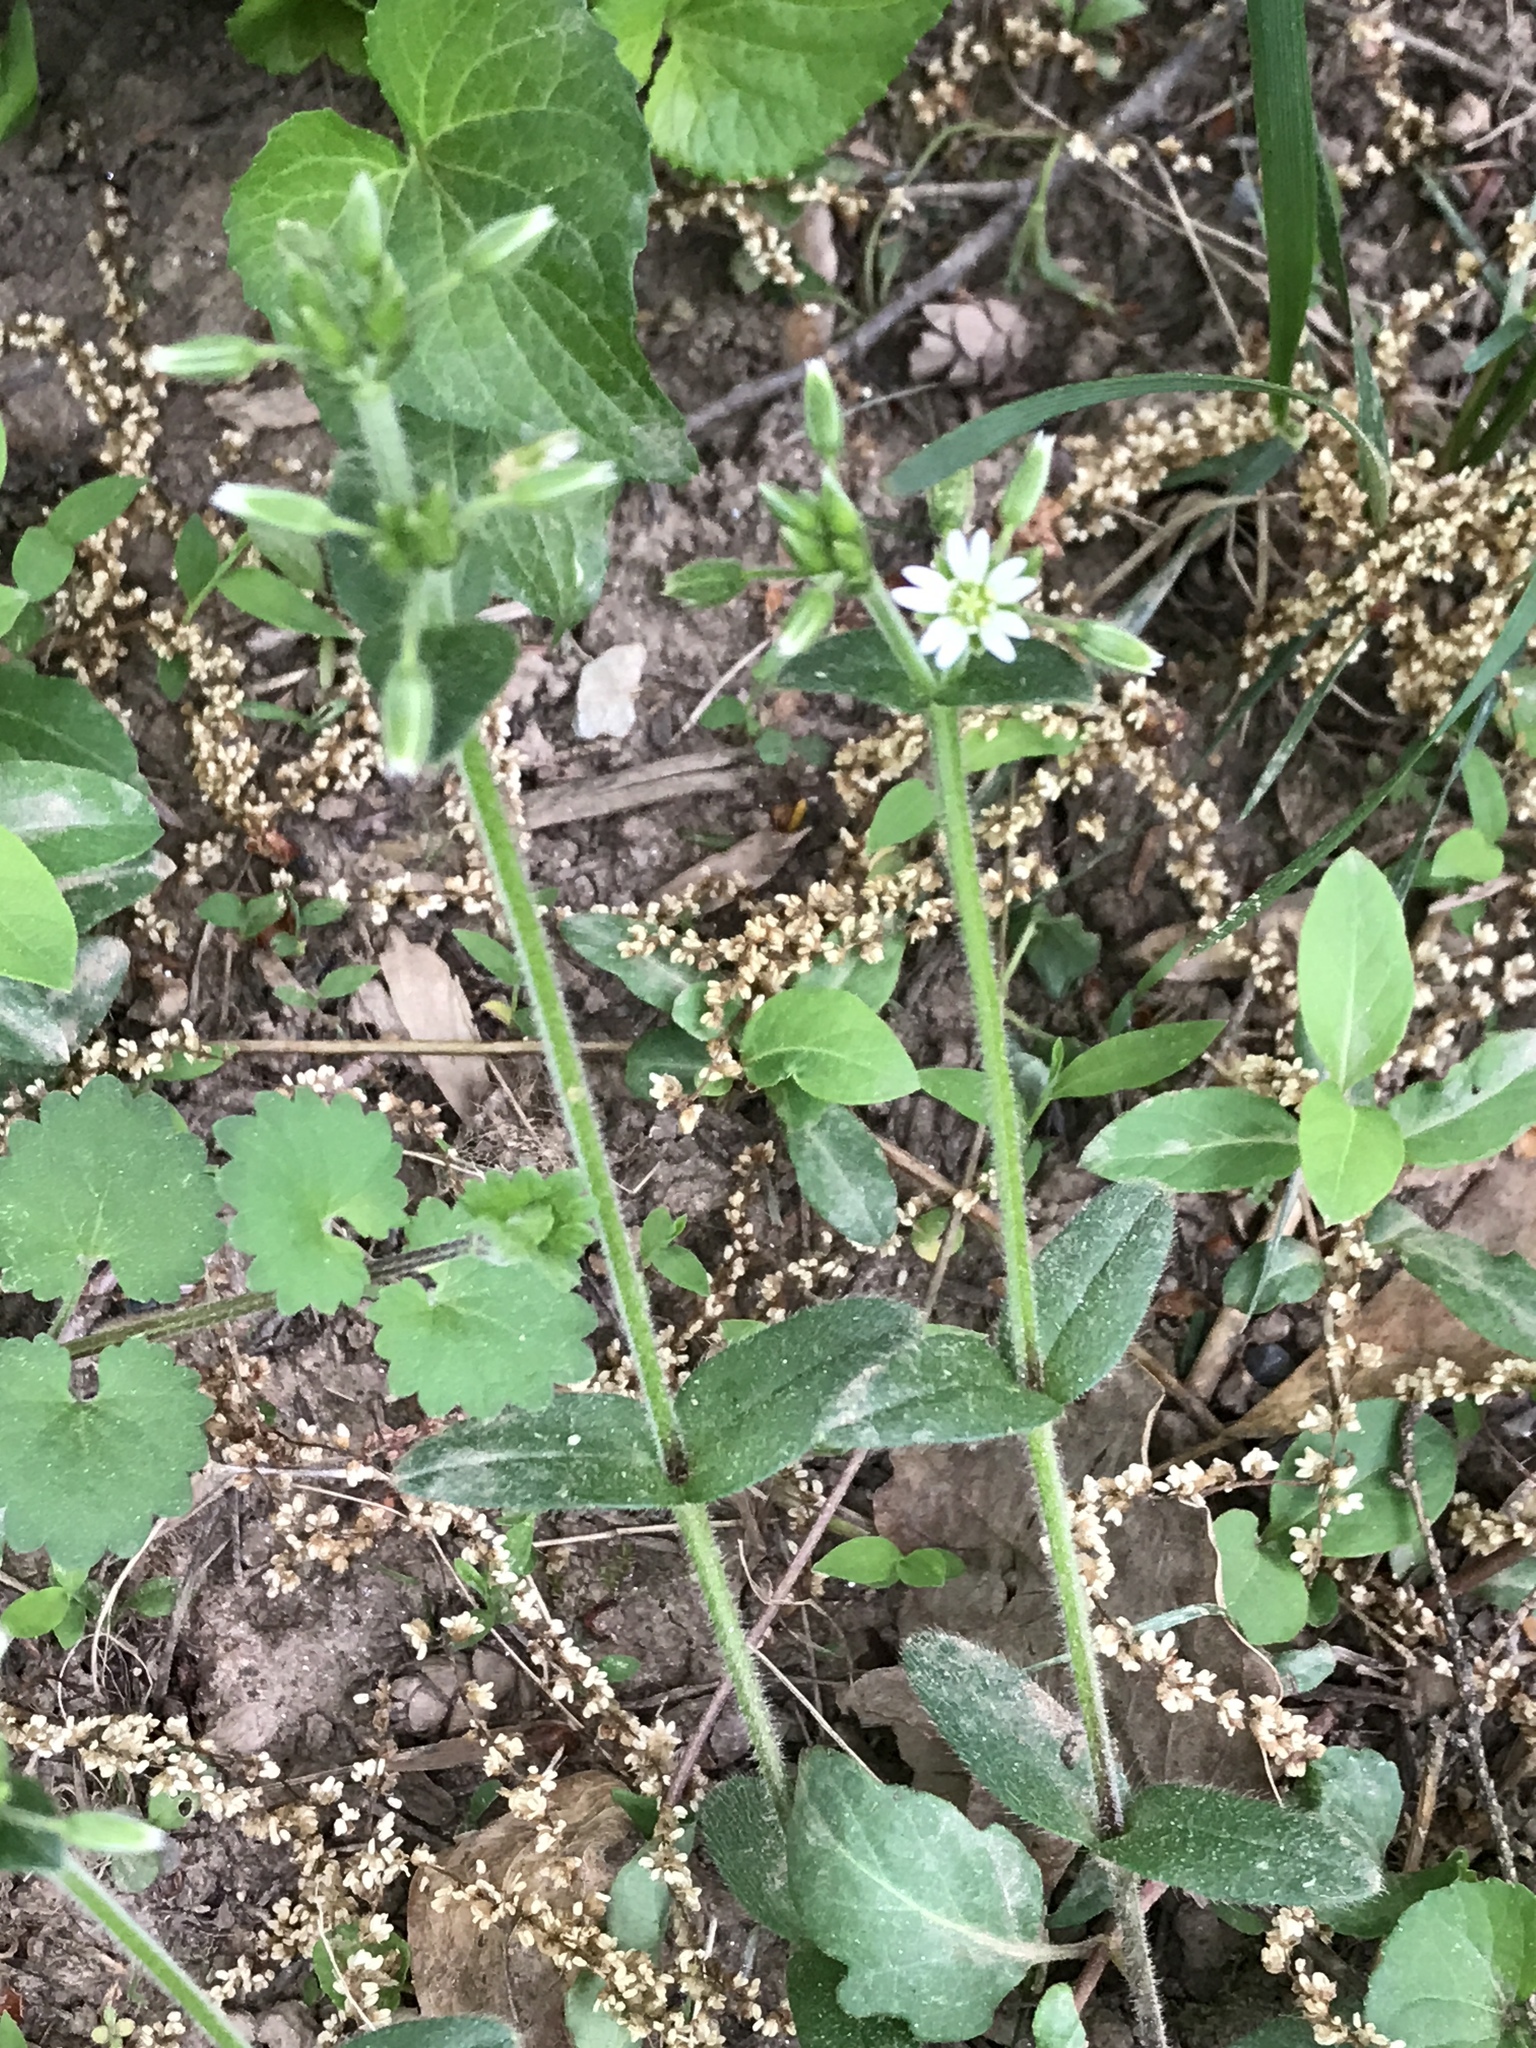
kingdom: Plantae
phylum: Tracheophyta
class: Magnoliopsida
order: Caryophyllales
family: Caryophyllaceae
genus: Cerastium
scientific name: Cerastium fontanum
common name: Common mouse-ear
